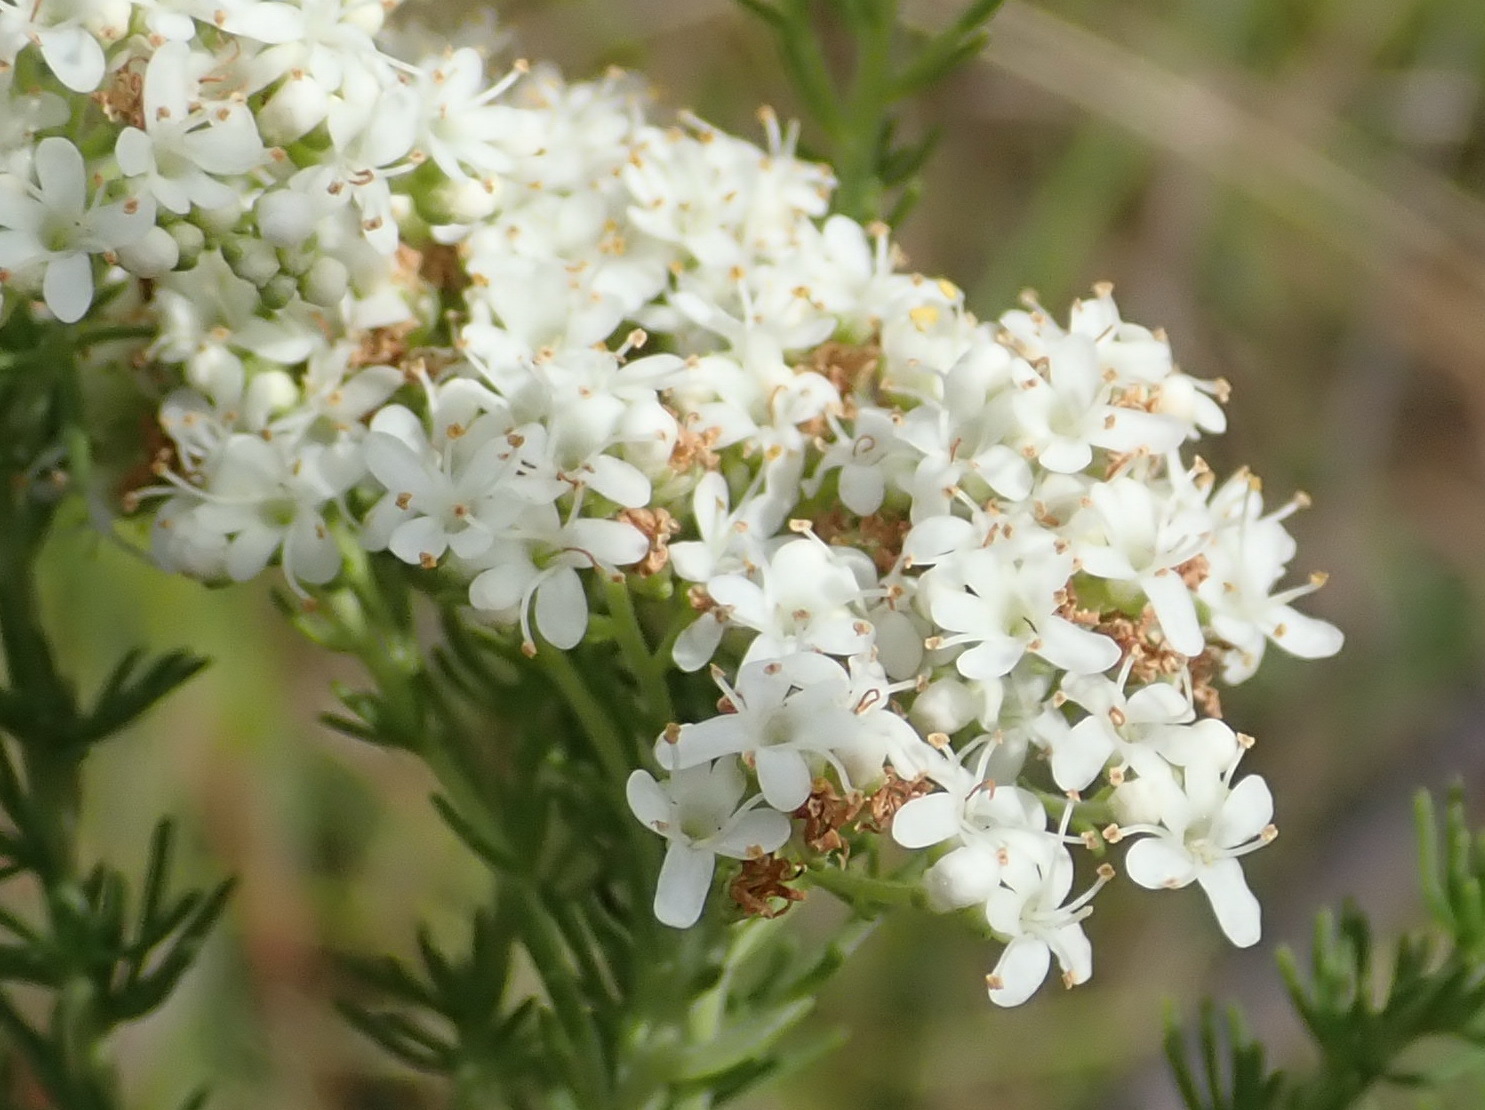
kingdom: Plantae
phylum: Tracheophyta
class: Magnoliopsida
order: Lamiales
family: Scrophulariaceae
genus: Selago
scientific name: Selago corymbosa
